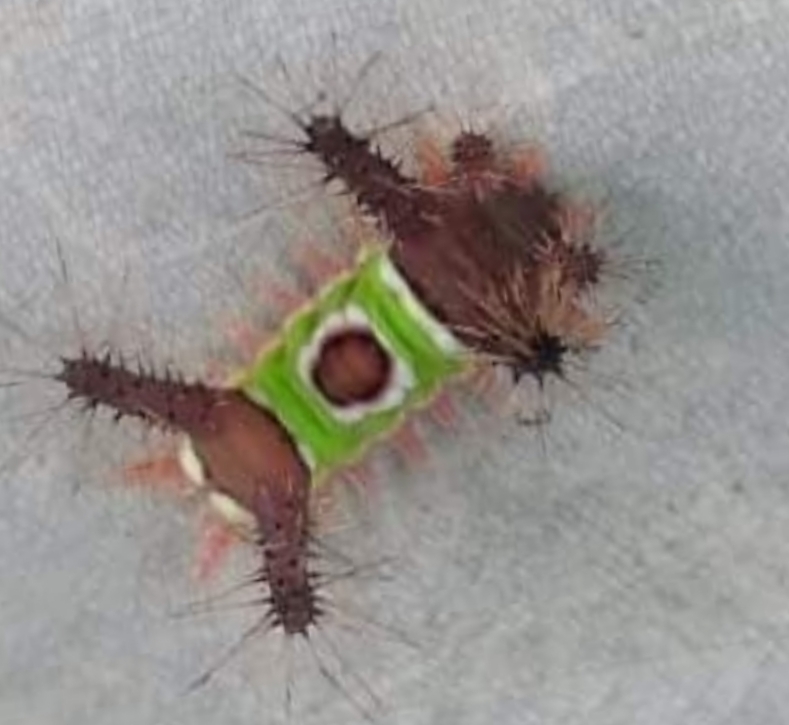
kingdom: Animalia
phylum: Arthropoda
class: Insecta
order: Lepidoptera
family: Limacodidae
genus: Acharia
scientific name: Acharia hyperoche
